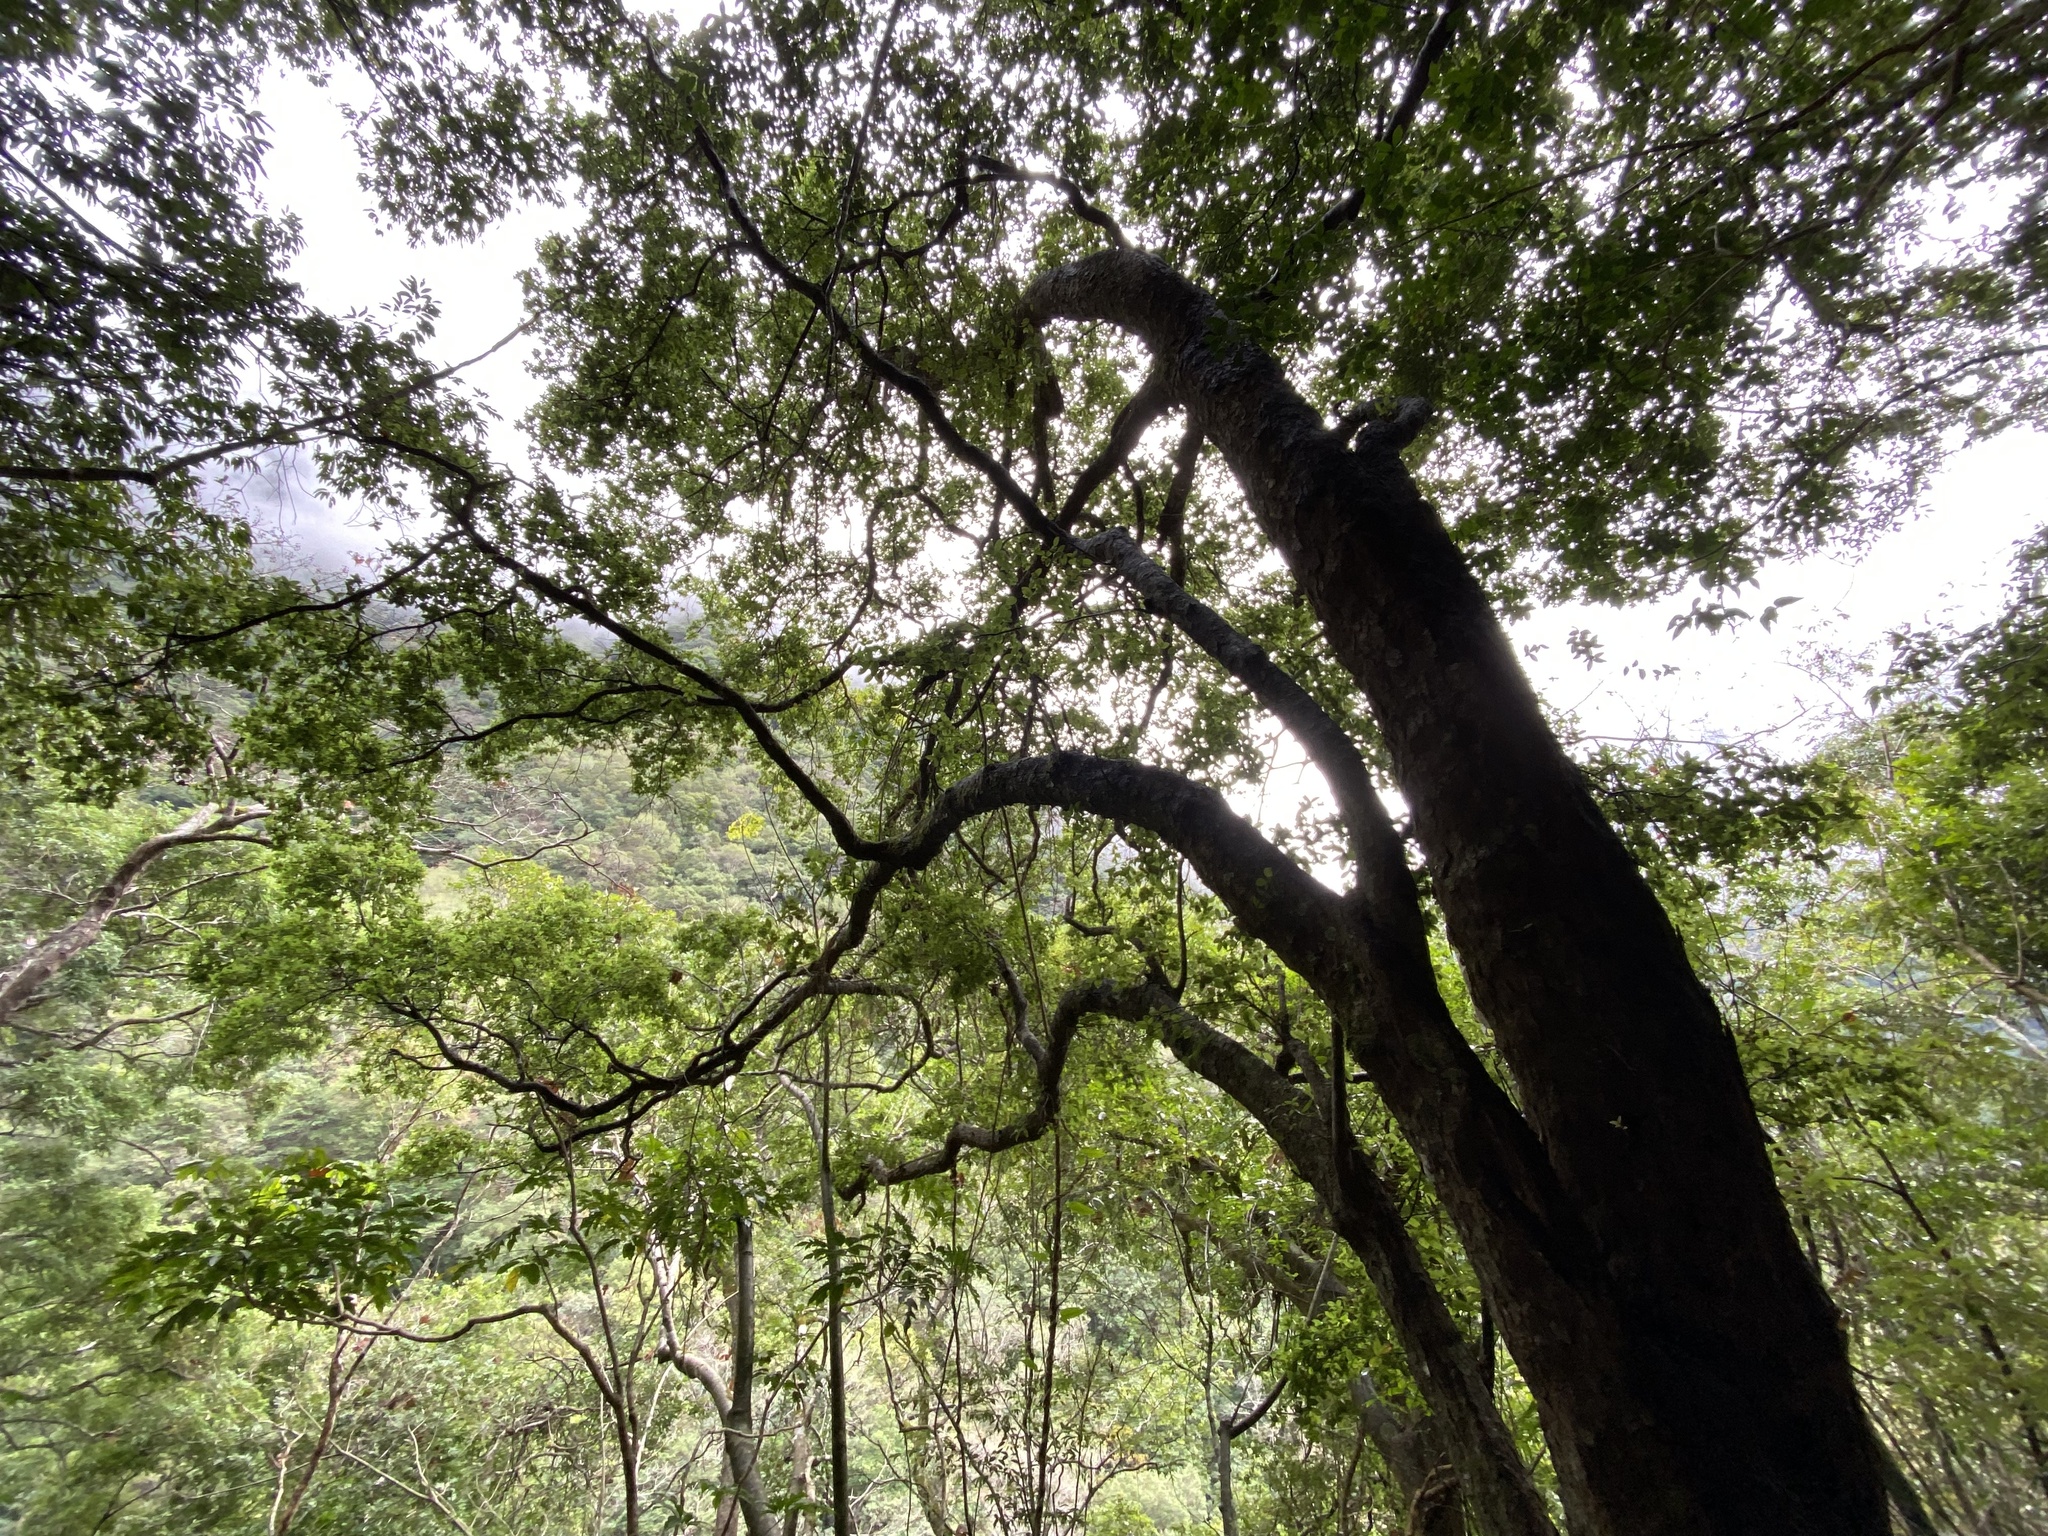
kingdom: Plantae
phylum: Tracheophyta
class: Magnoliopsida
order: Fagales
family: Fagaceae
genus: Quercus
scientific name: Quercus tarokoensis
